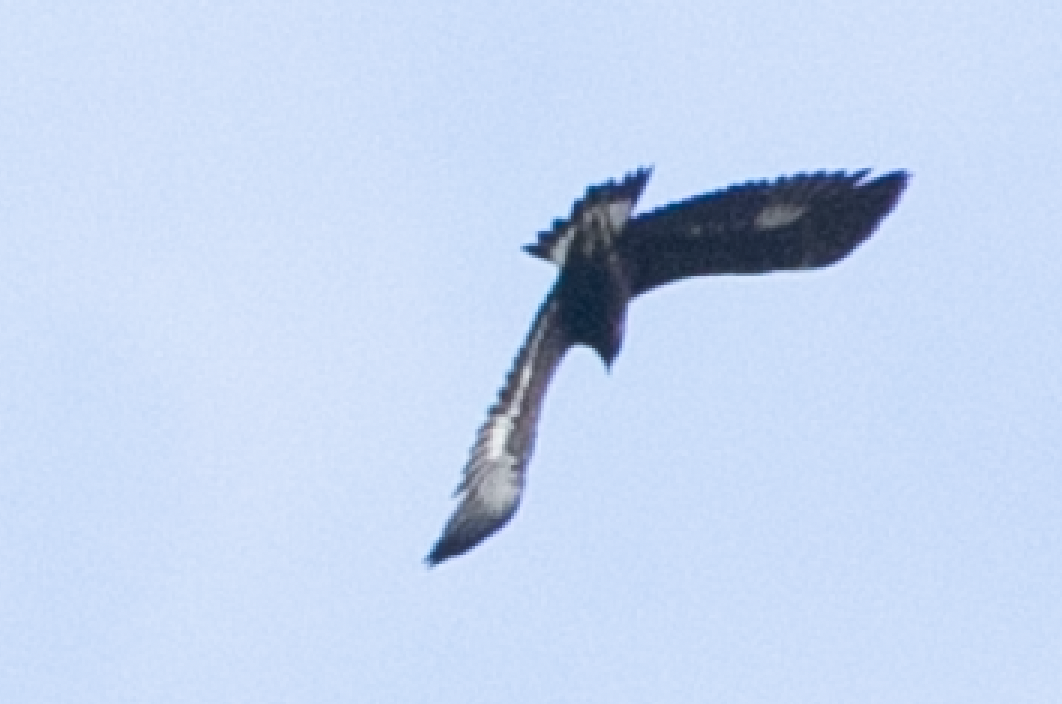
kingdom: Animalia
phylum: Chordata
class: Aves
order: Accipitriformes
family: Accipitridae
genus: Aquila
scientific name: Aquila chrysaetos
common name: Golden eagle
